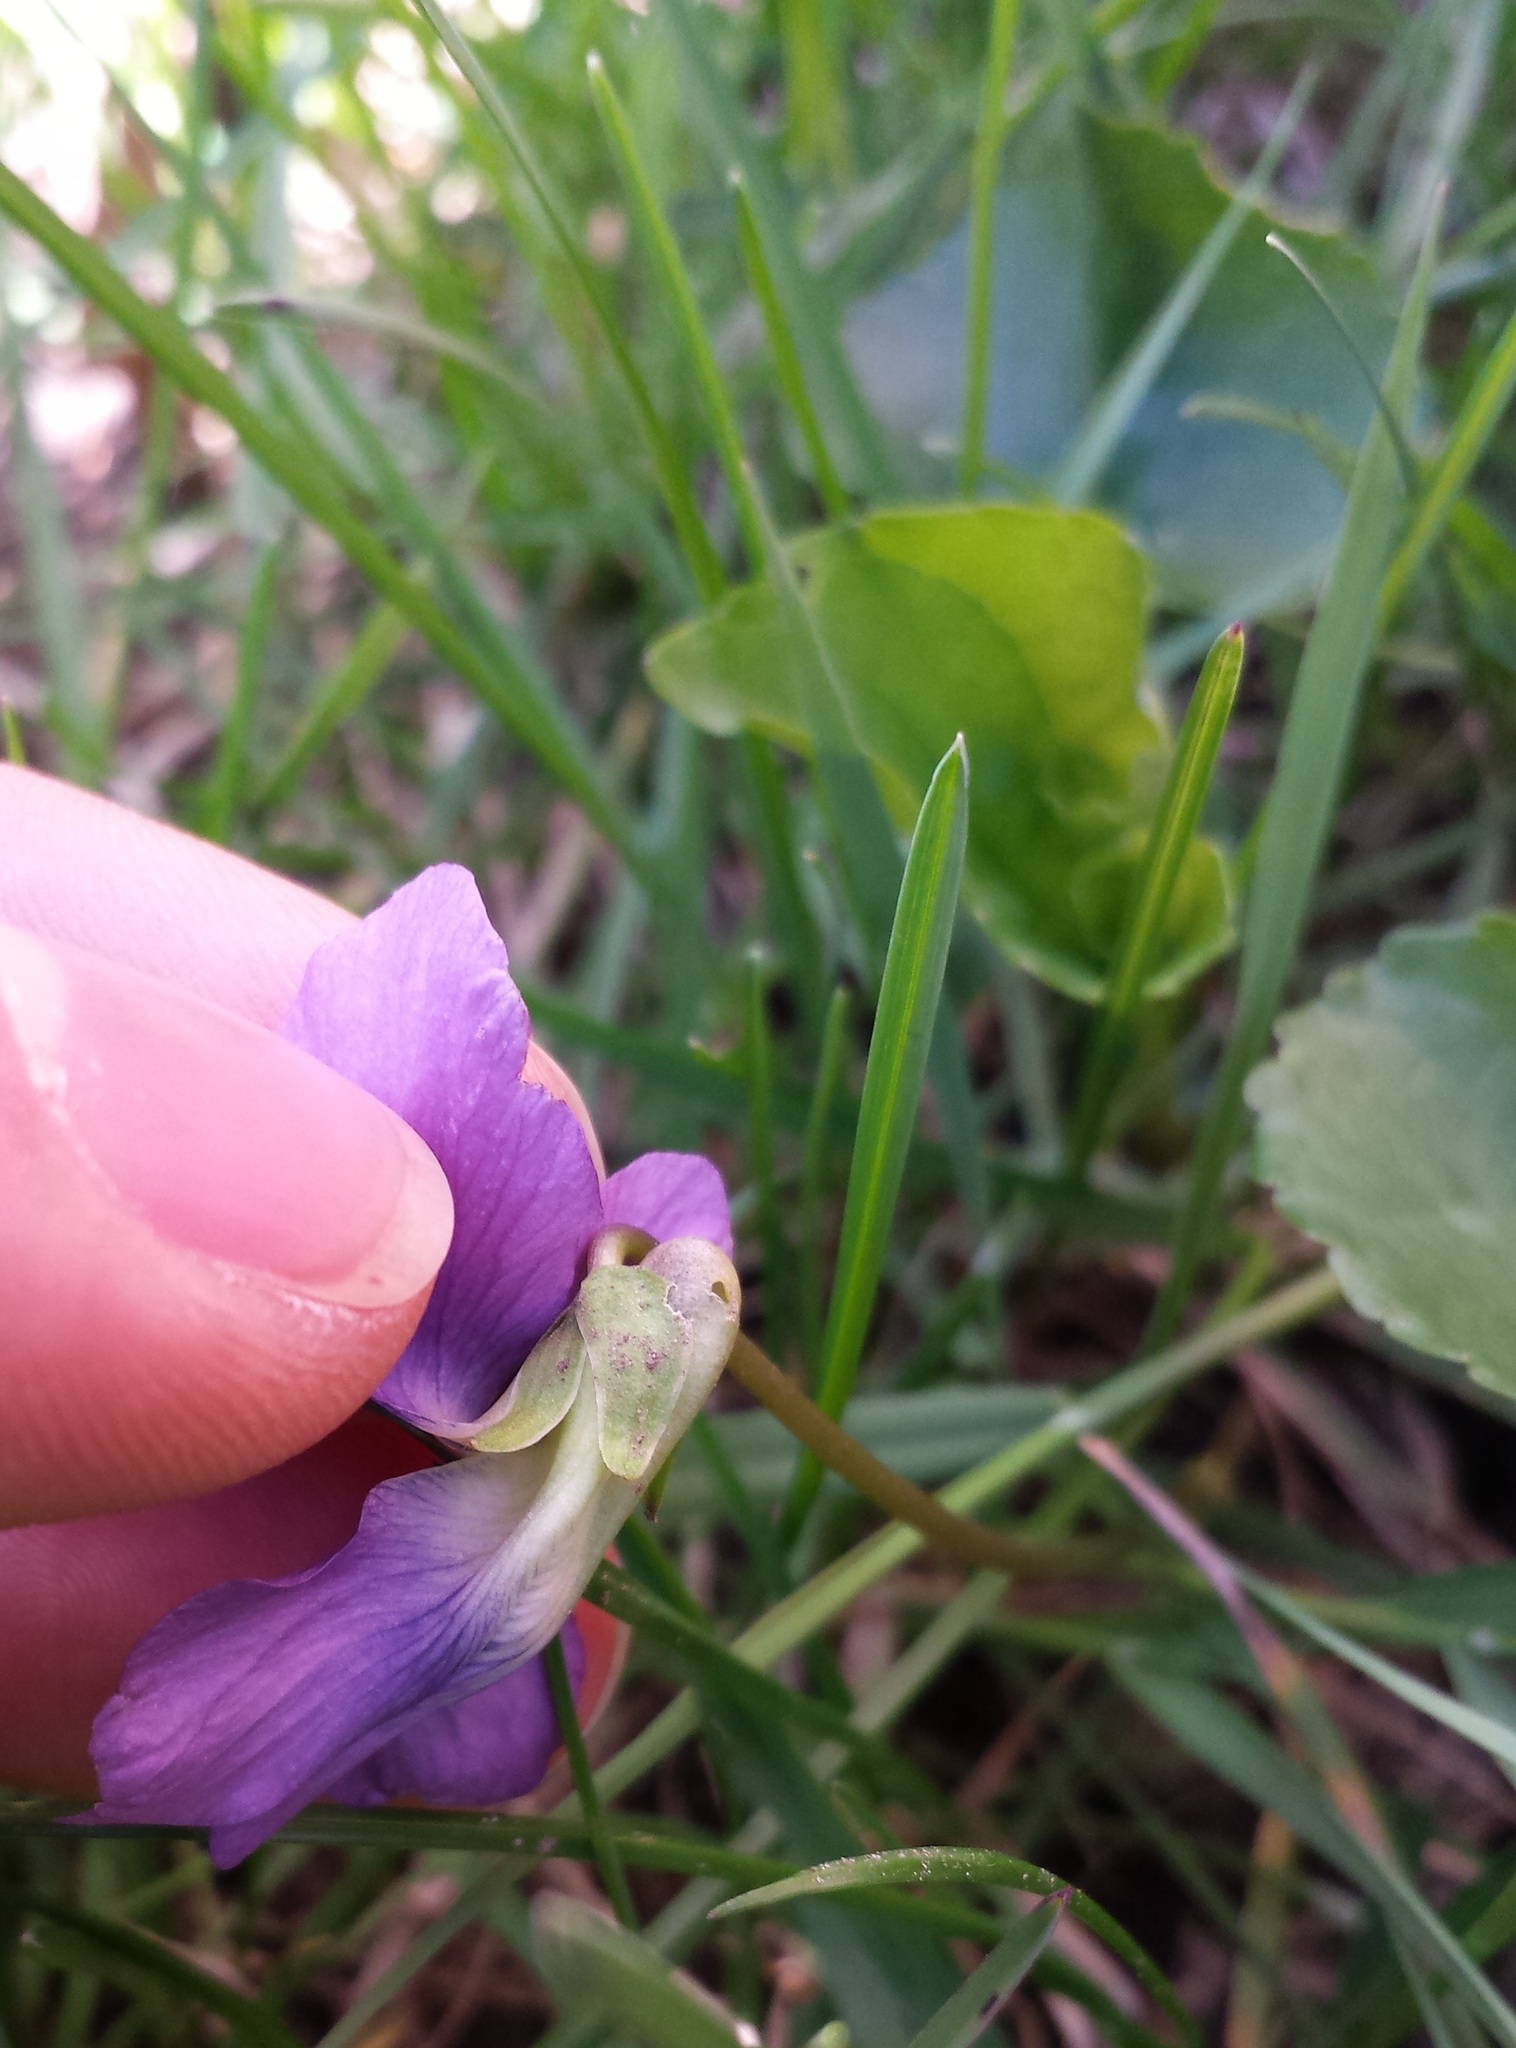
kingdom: Plantae
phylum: Tracheophyta
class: Magnoliopsida
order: Malpighiales
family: Violaceae
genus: Viola
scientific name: Viola sororia
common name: Dooryard violet
